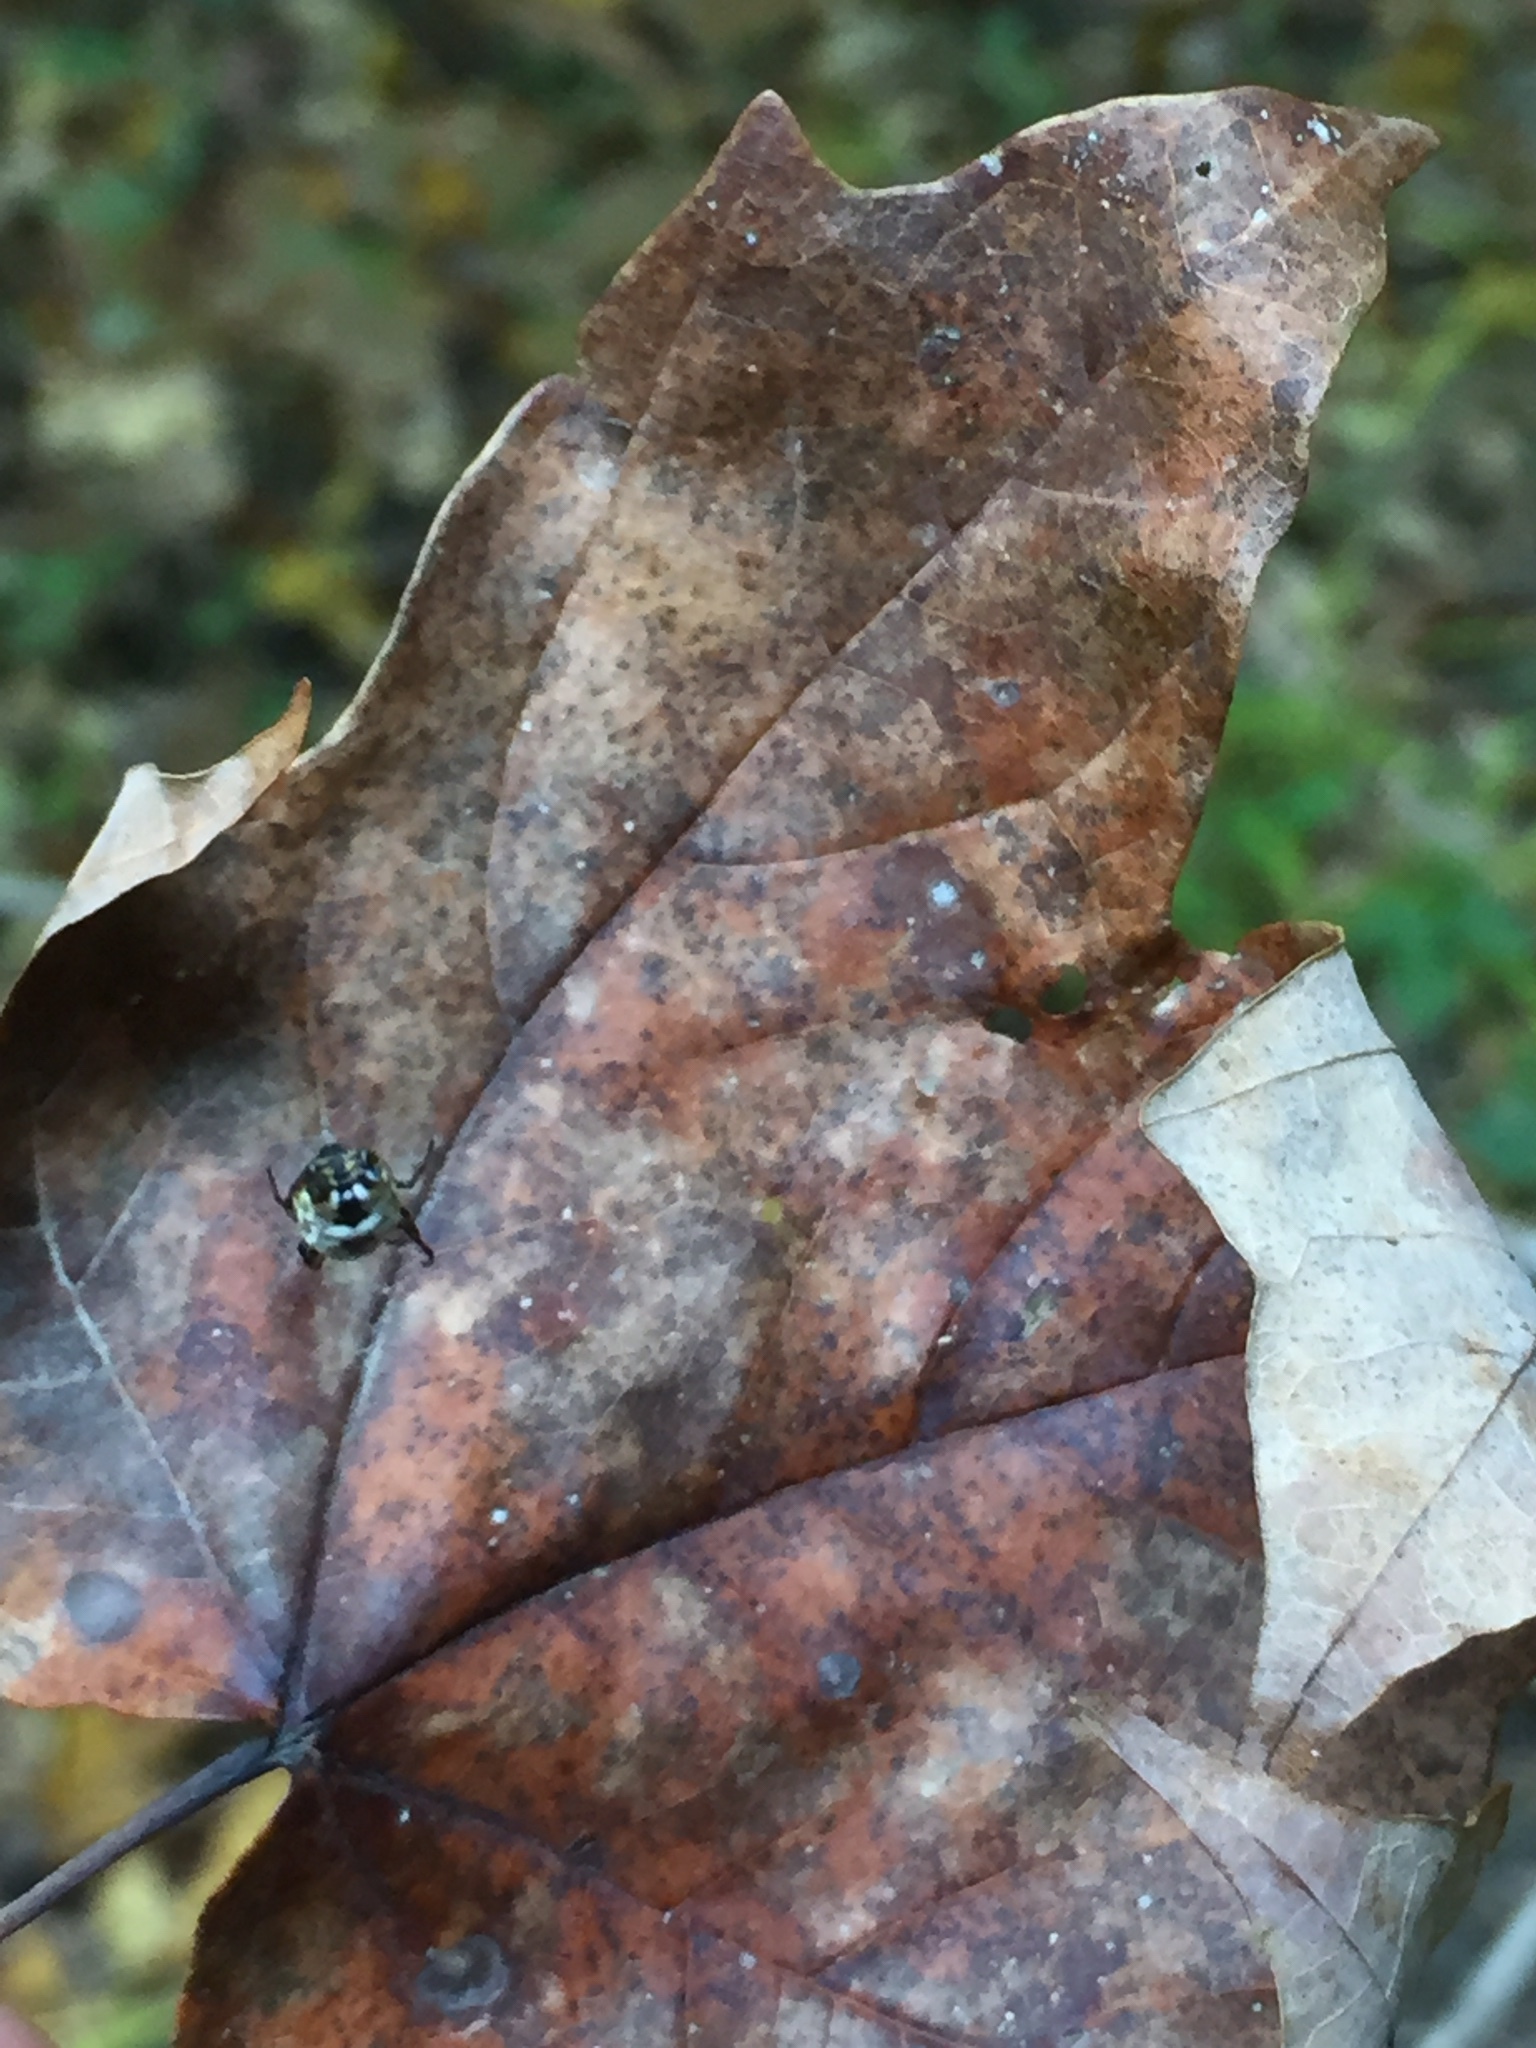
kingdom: Animalia
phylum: Arthropoda
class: Arachnida
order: Araneae
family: Araneidae
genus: Micrathena
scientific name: Micrathena mitrata
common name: Orb weavers
